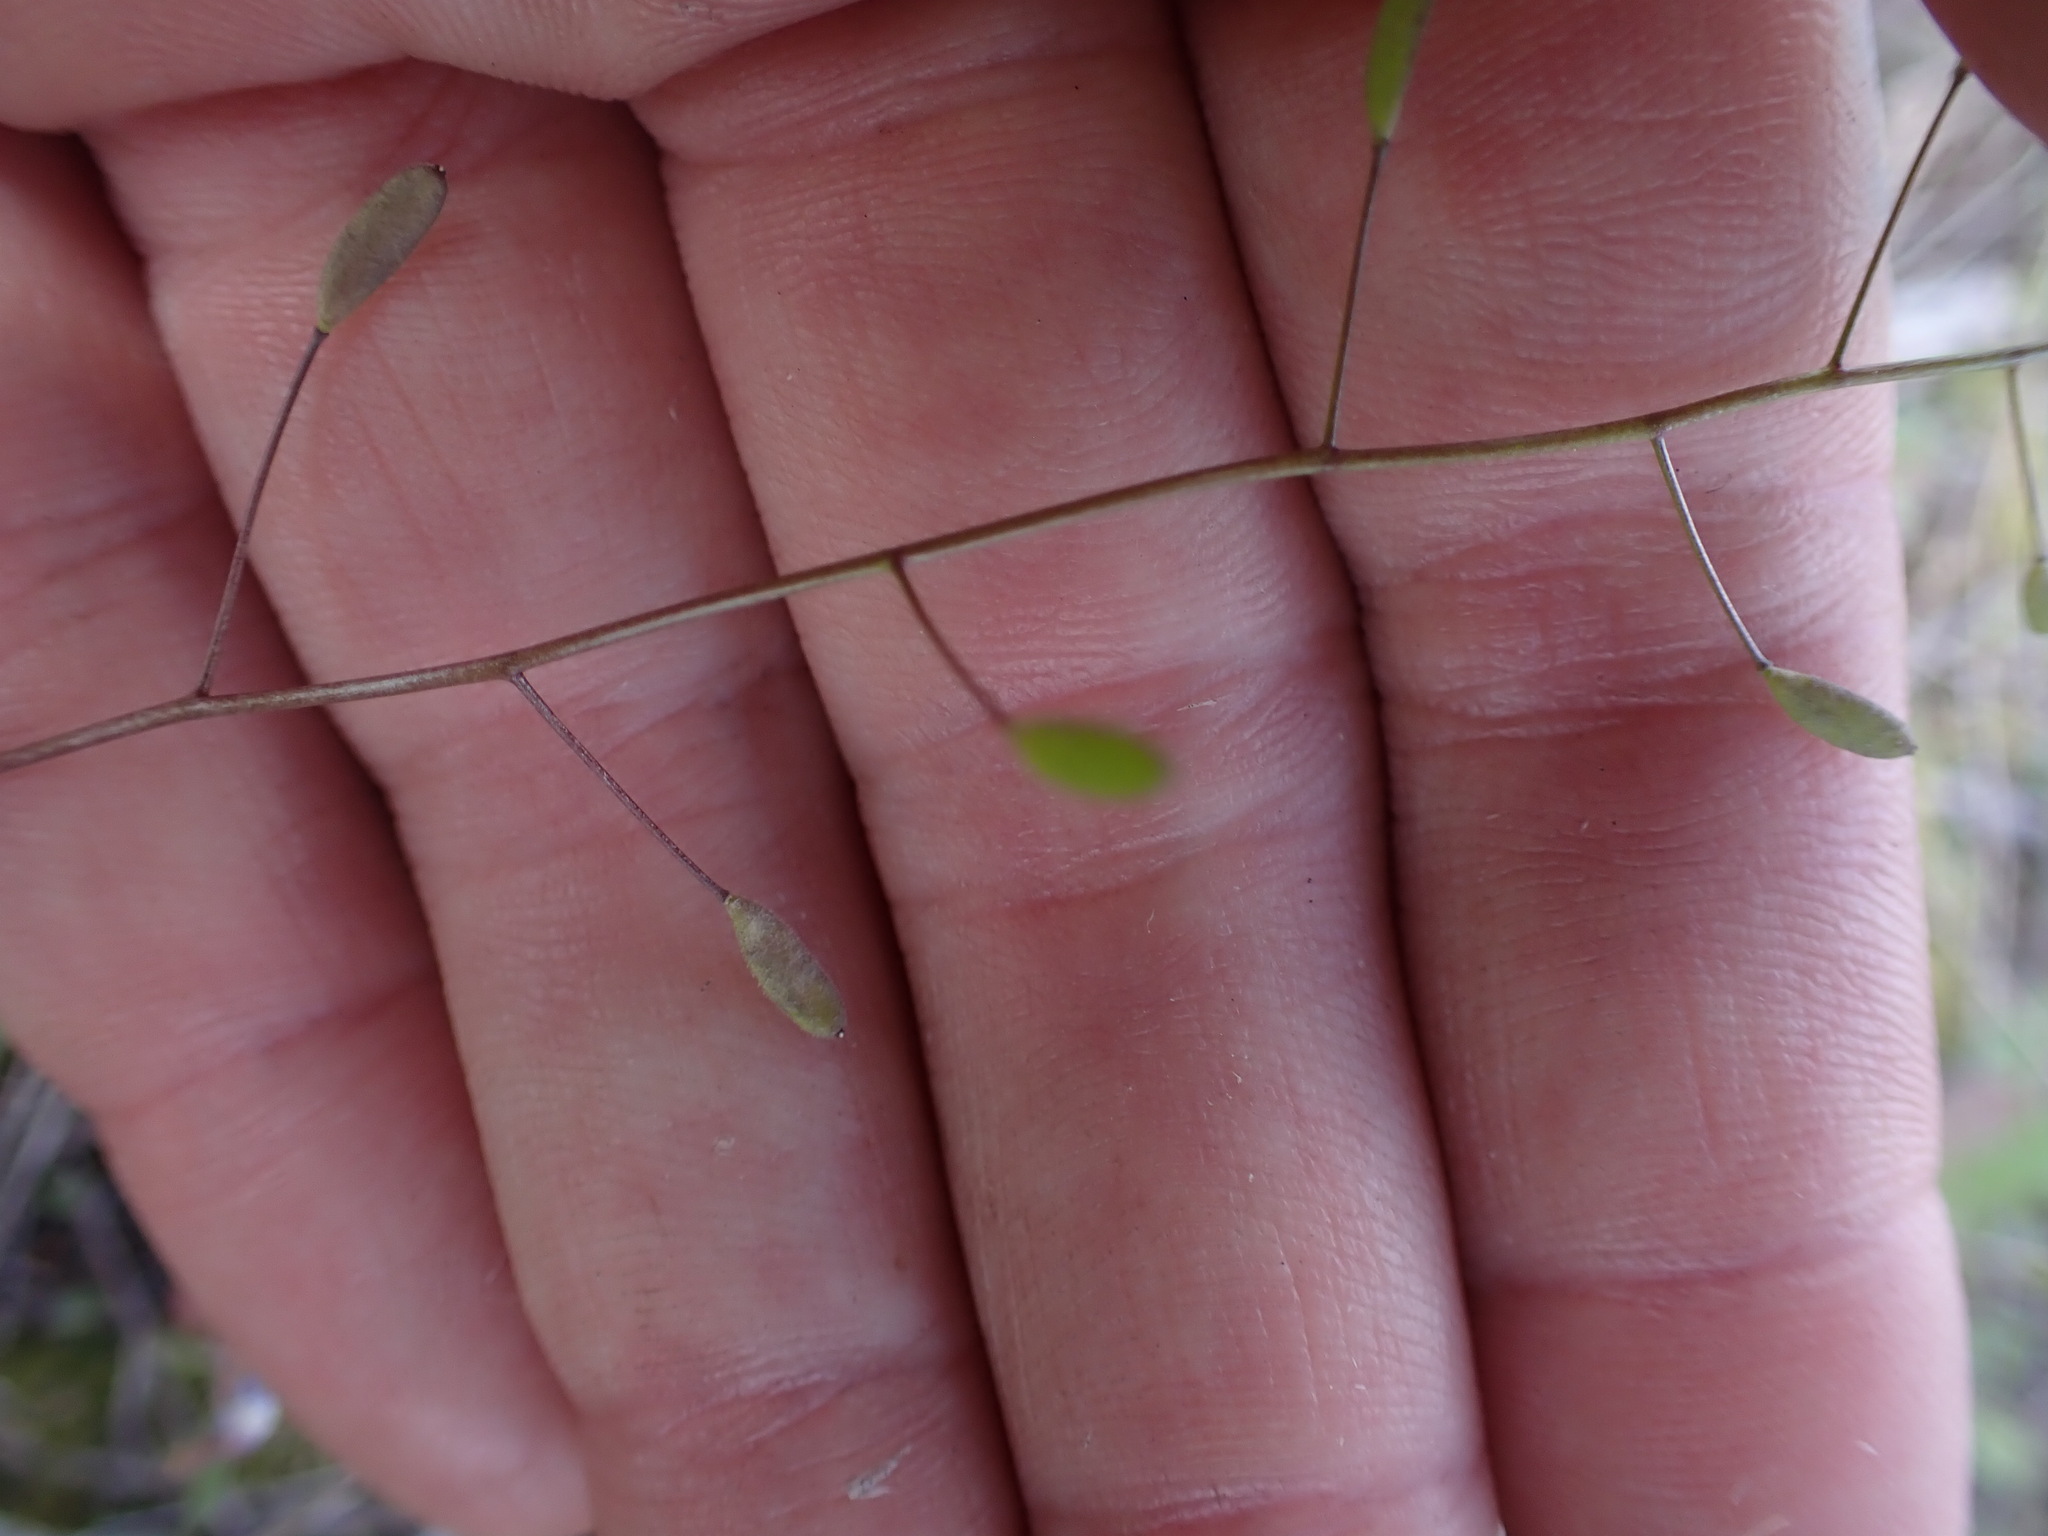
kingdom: Plantae
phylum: Tracheophyta
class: Magnoliopsida
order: Brassicales
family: Brassicaceae
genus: Draba
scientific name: Draba nemorosa
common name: Wood whitlow-grass
